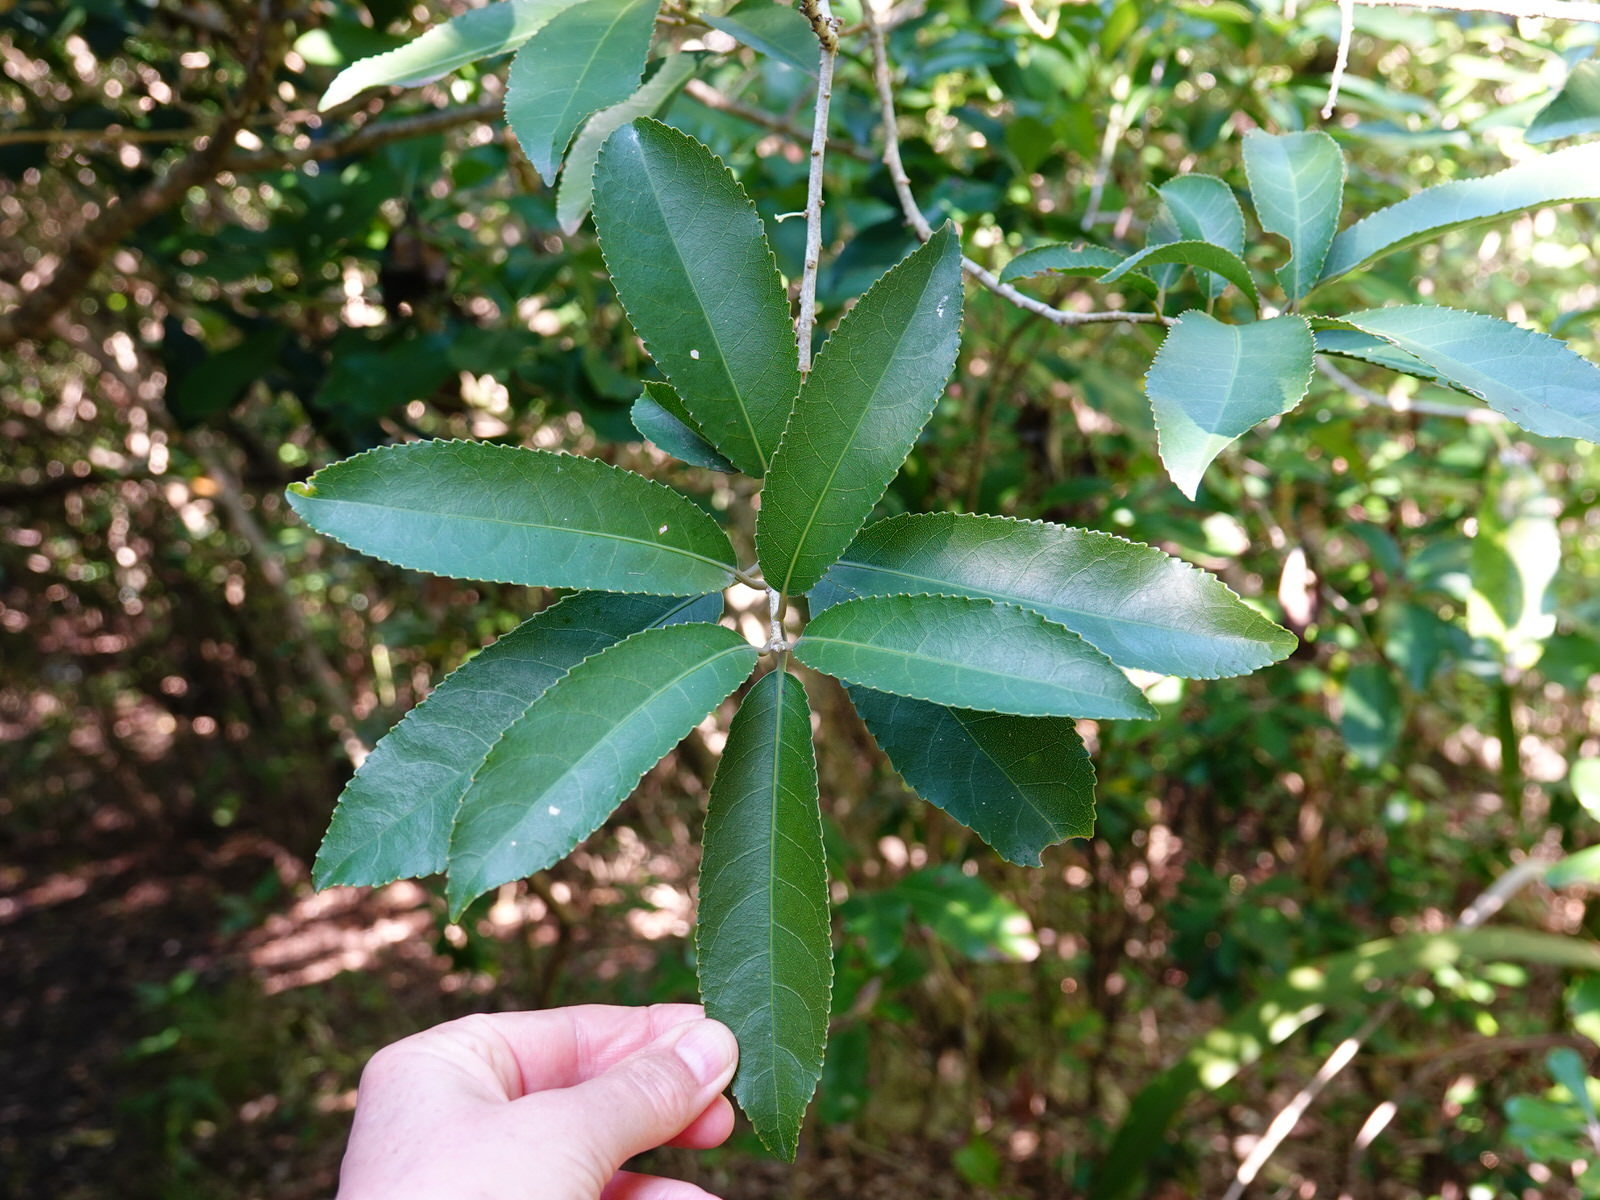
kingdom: Plantae
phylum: Tracheophyta
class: Magnoliopsida
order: Malpighiales
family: Violaceae
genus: Melicytus
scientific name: Melicytus ramiflorus
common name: Mahoe
